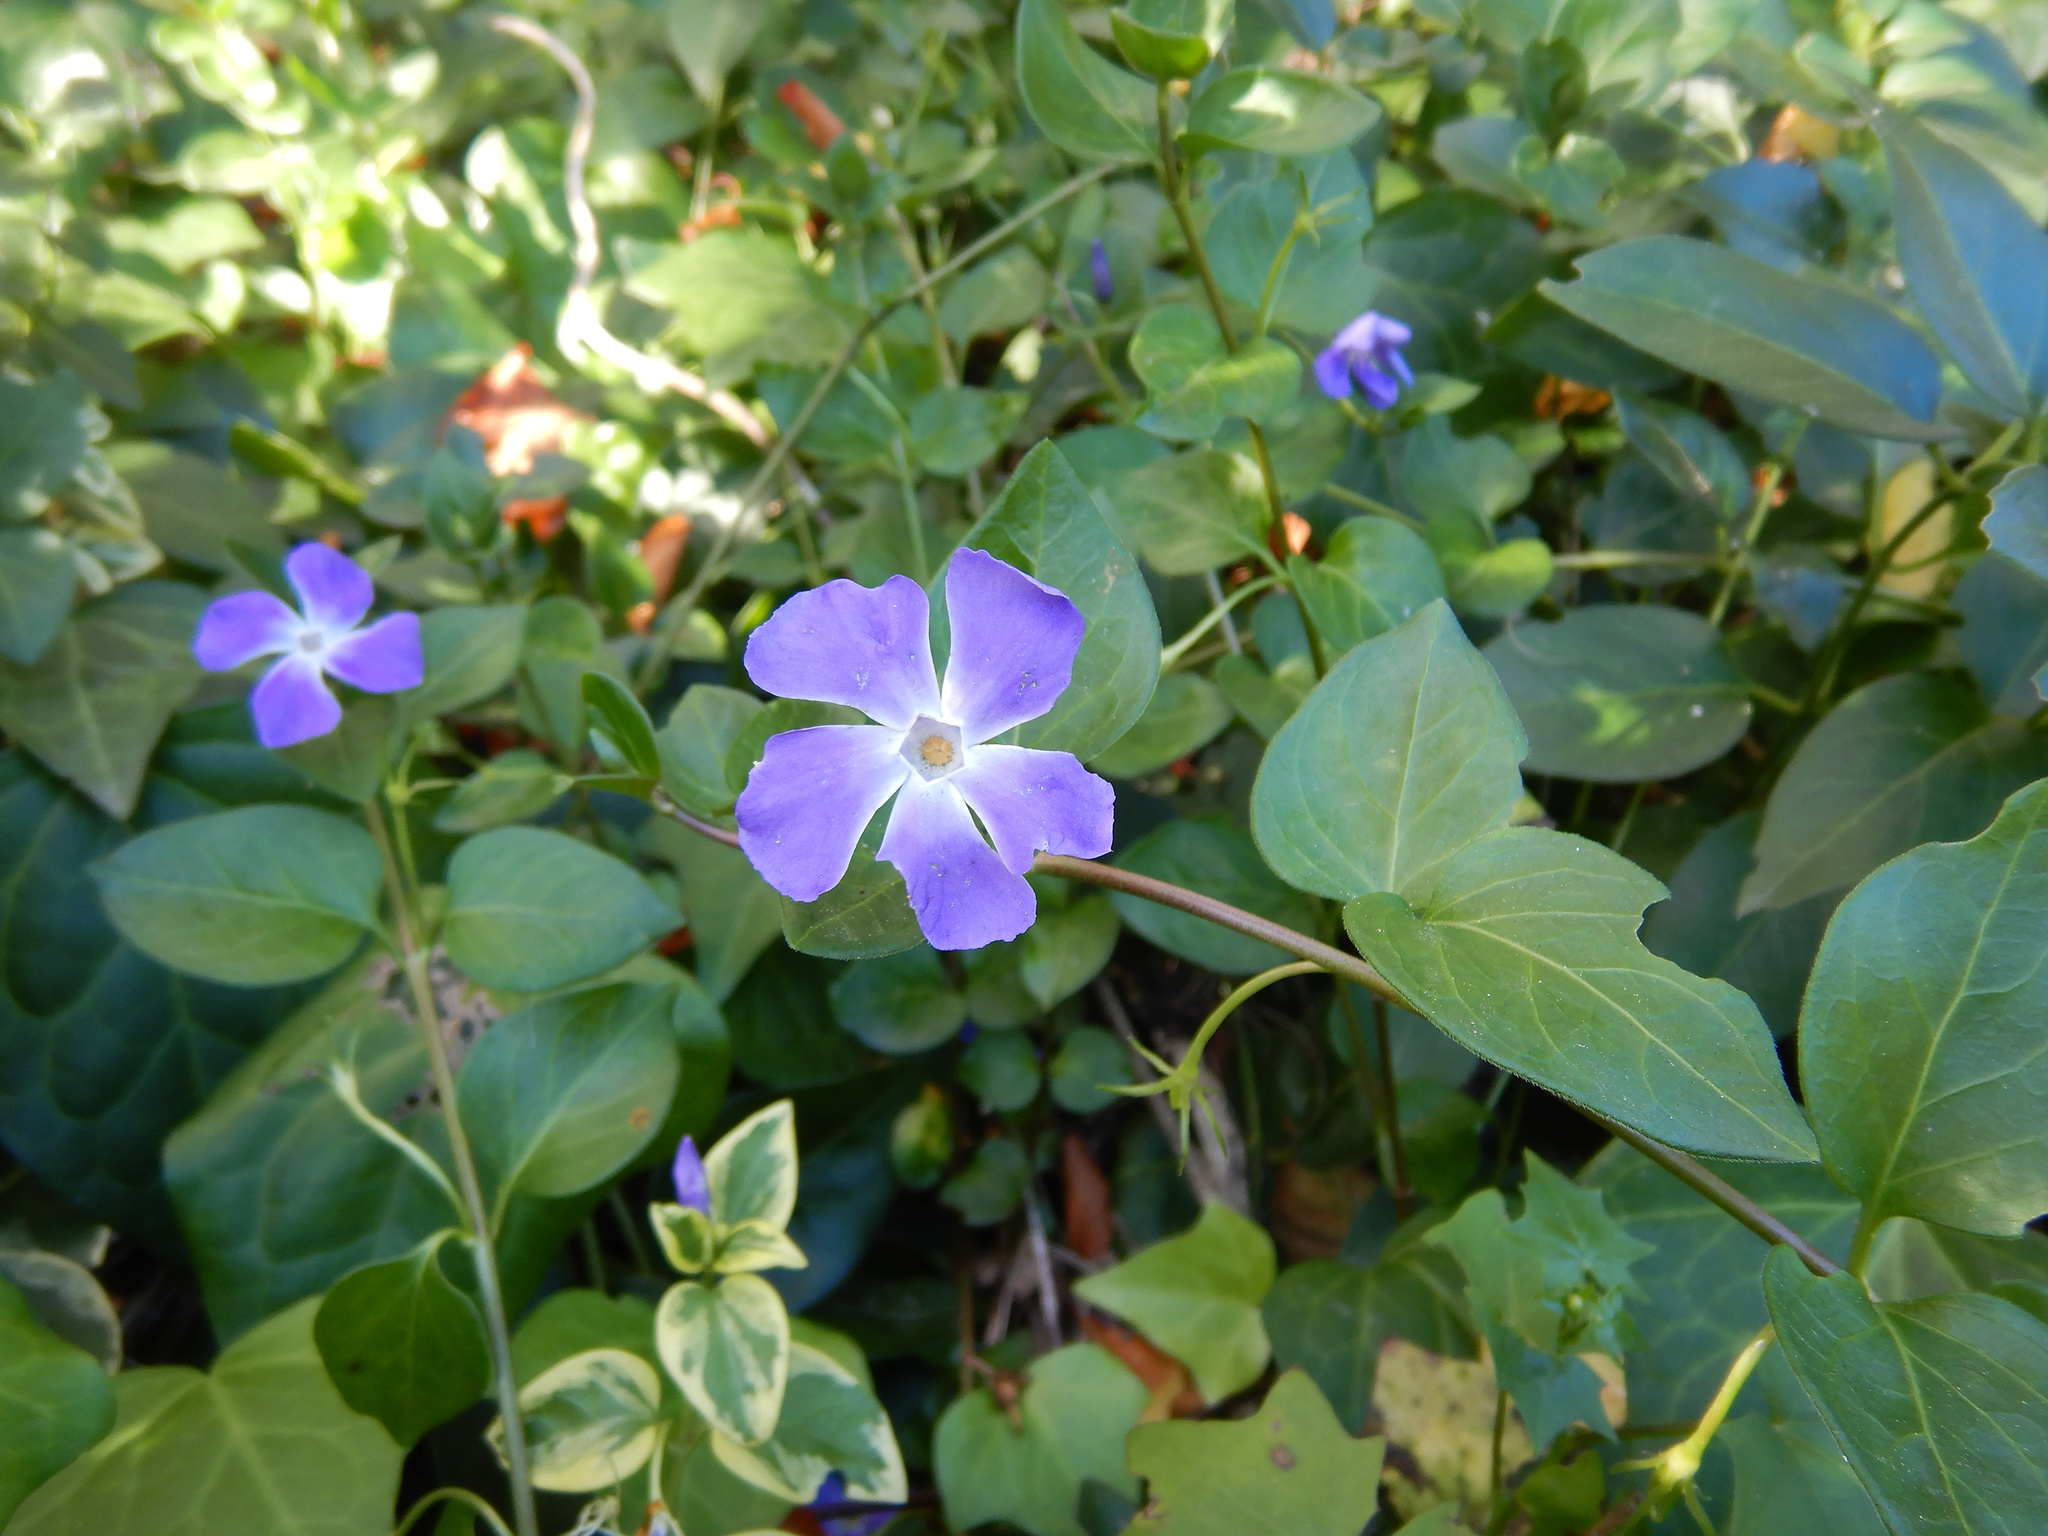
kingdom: Plantae
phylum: Tracheophyta
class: Magnoliopsida
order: Gentianales
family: Apocynaceae
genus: Vinca
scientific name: Vinca major
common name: Greater periwinkle
